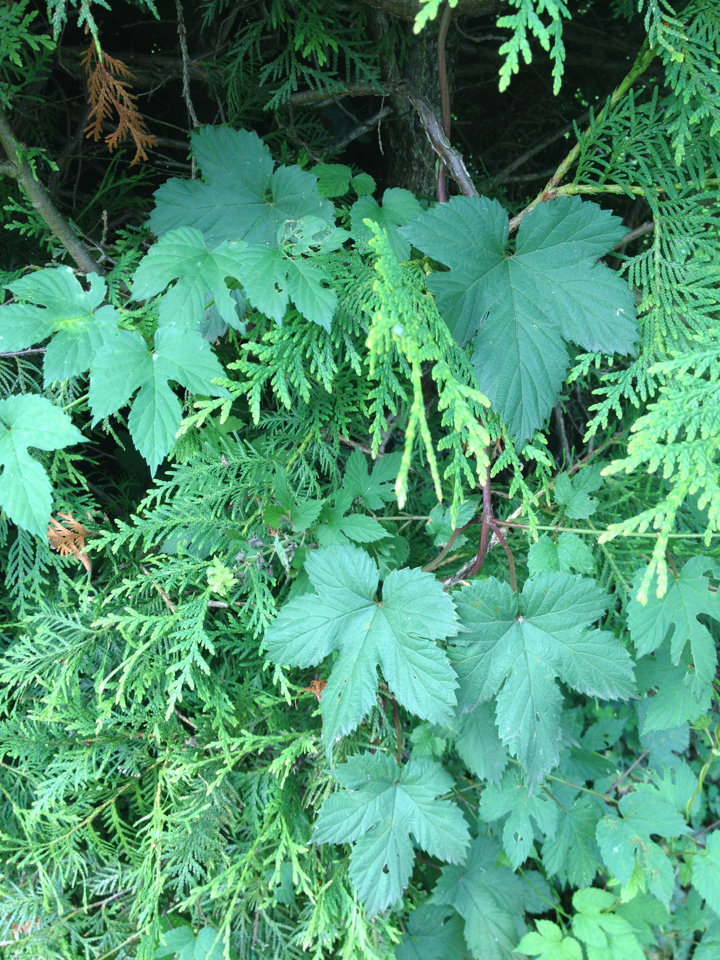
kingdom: Plantae
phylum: Tracheophyta
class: Magnoliopsida
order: Rosales
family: Cannabaceae
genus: Humulus
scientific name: Humulus lupulus
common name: Hop
